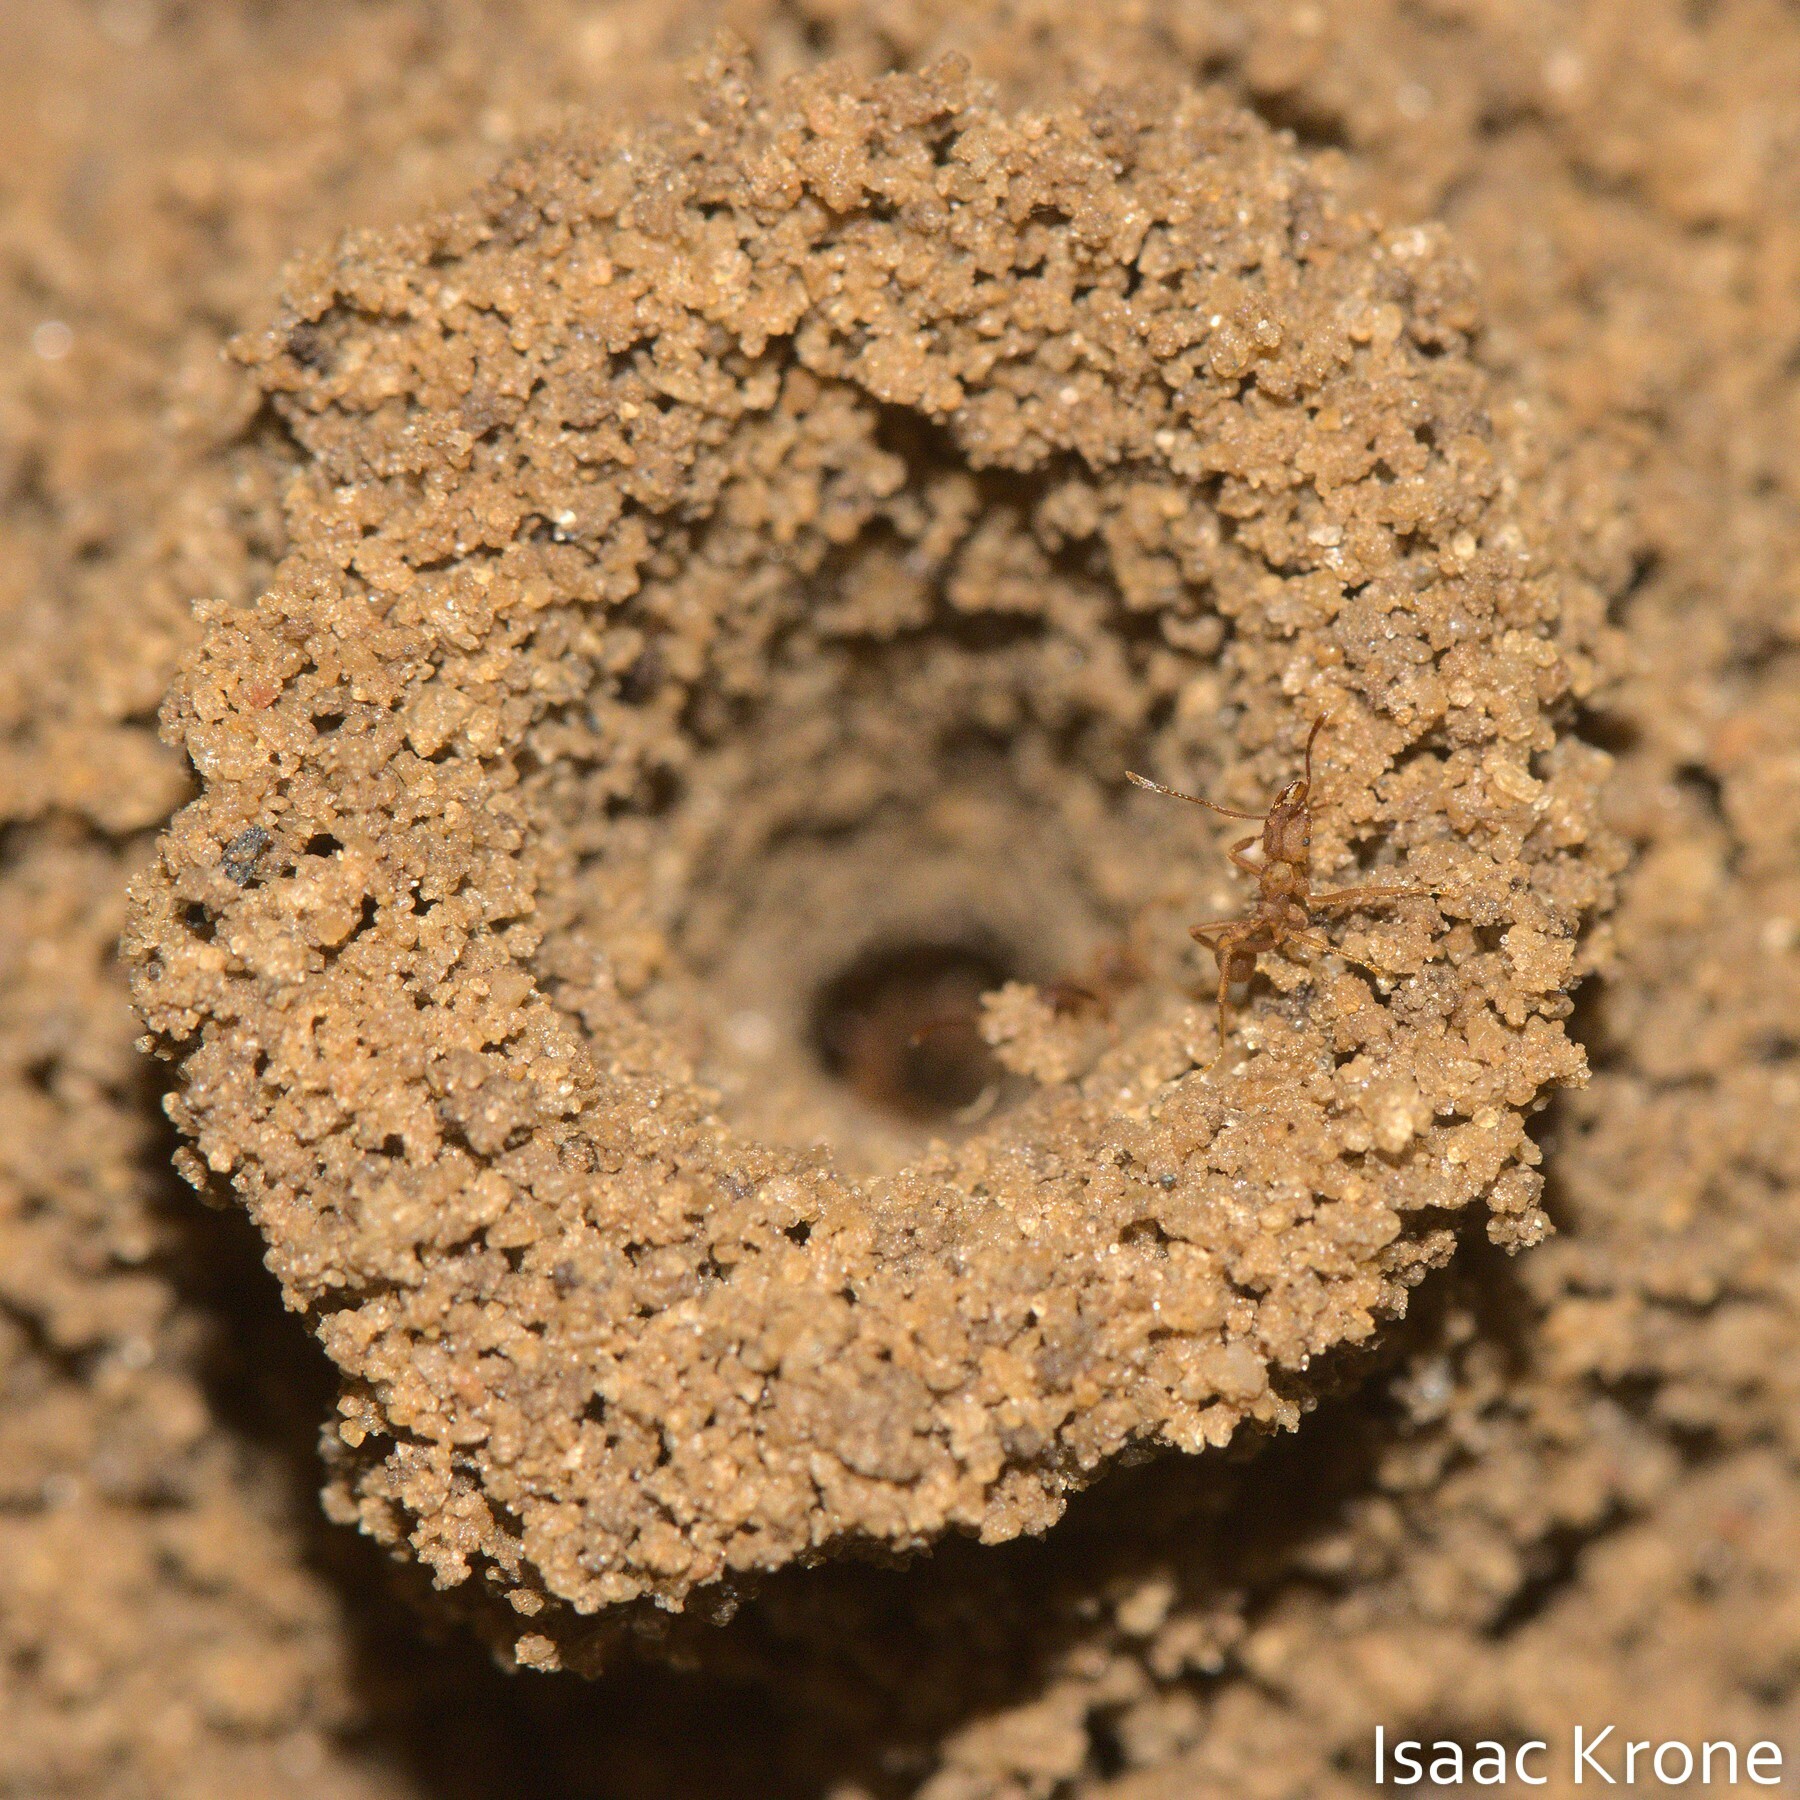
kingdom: Animalia
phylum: Arthropoda
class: Insecta
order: Hymenoptera
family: Formicidae
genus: Mycocepurus
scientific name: Mycocepurus smithii
